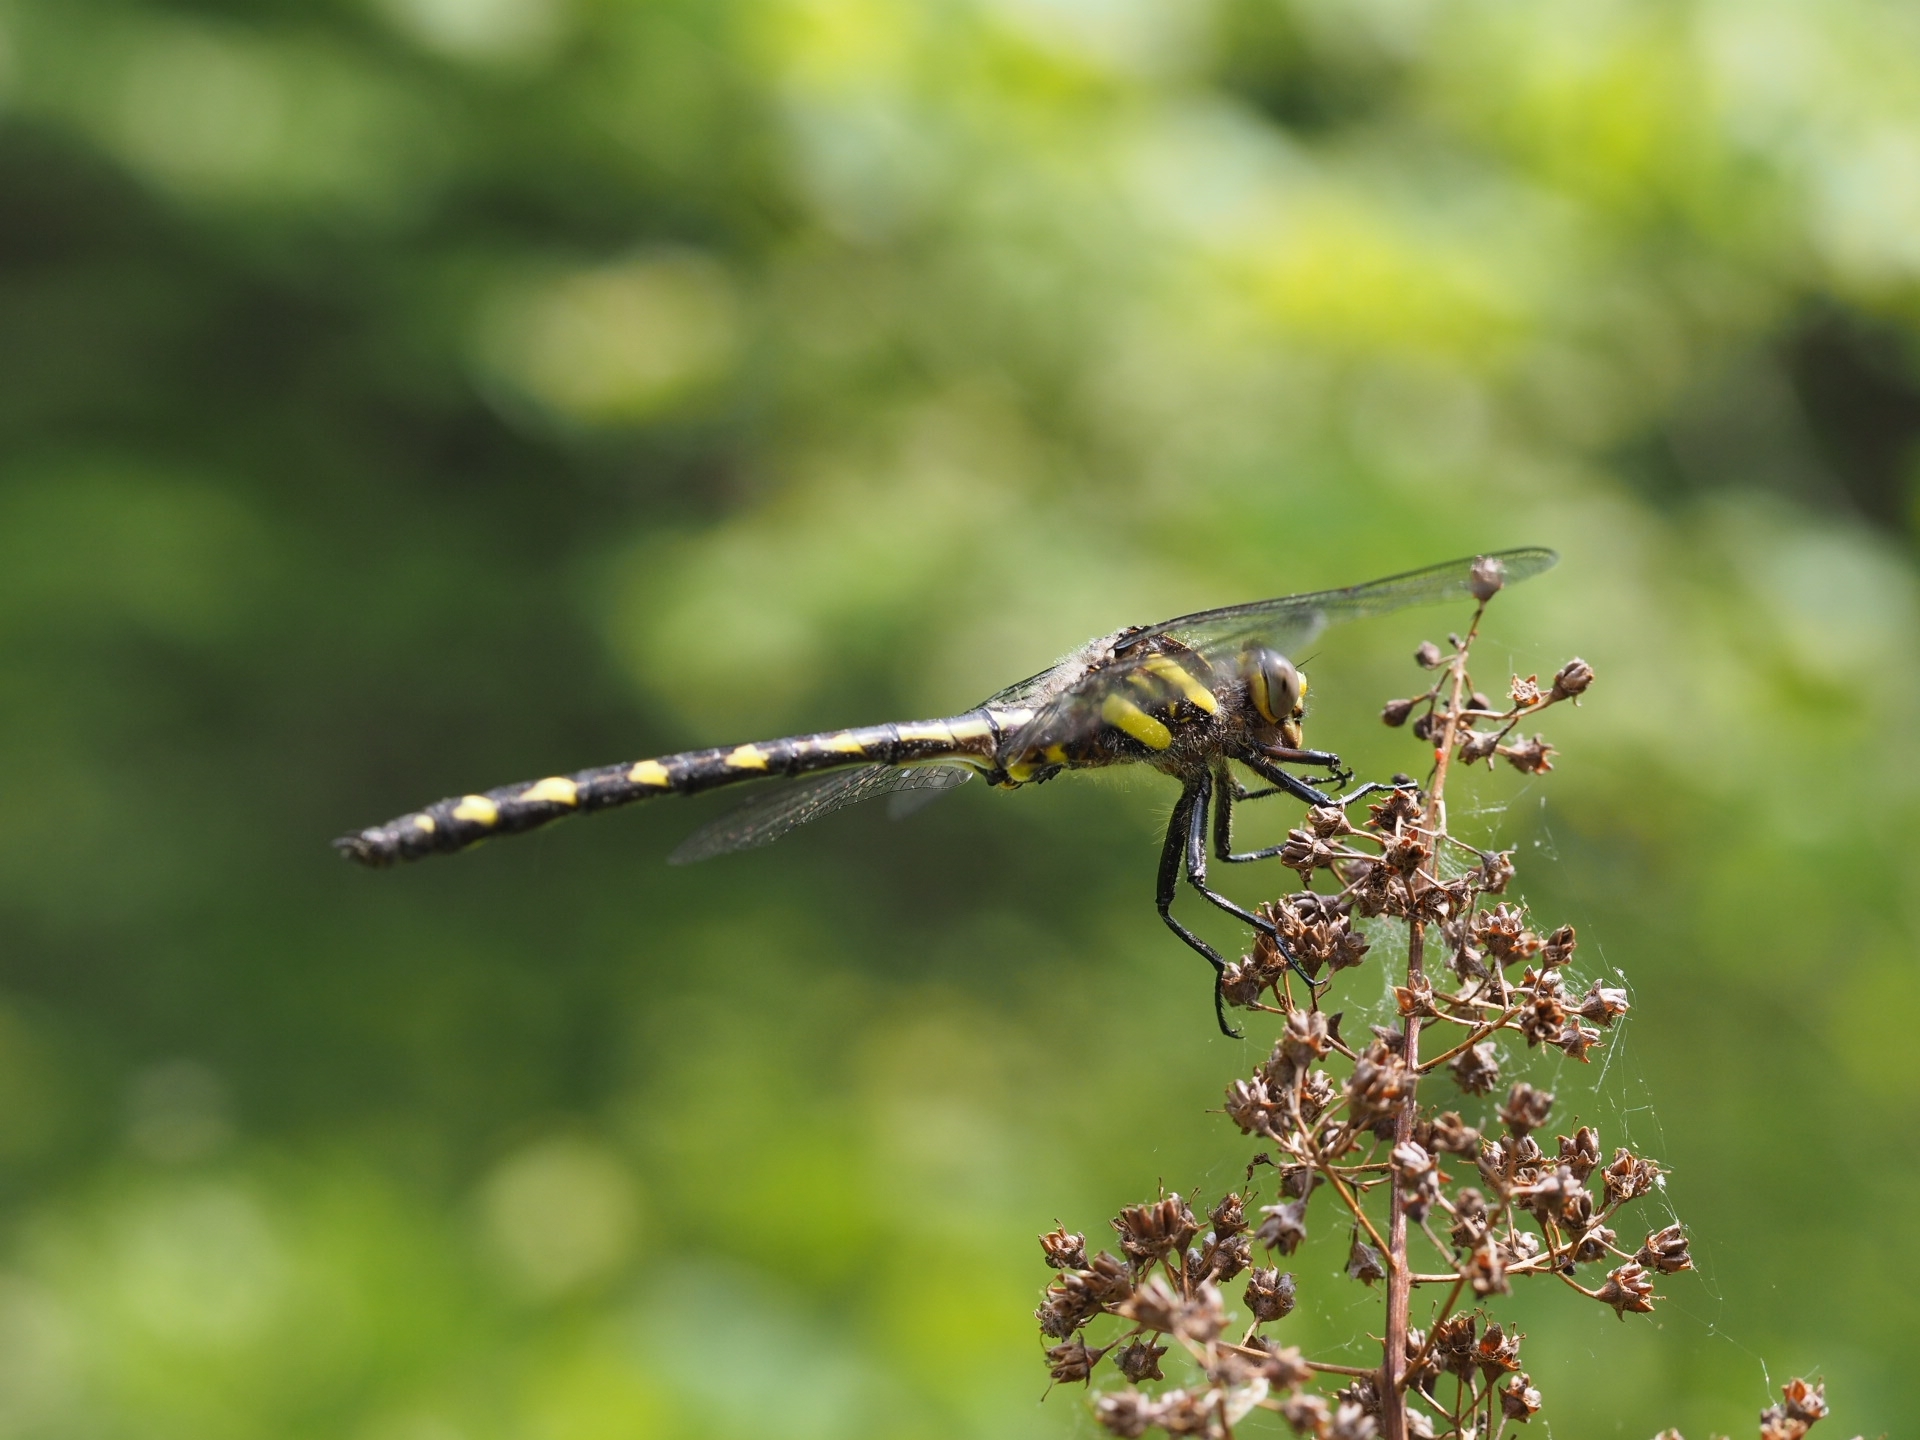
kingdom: Animalia
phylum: Arthropoda
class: Insecta
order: Odonata
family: Cordulegastridae
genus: Cordulegaster
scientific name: Cordulegaster diastatops
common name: Delta-spotted spiketail
